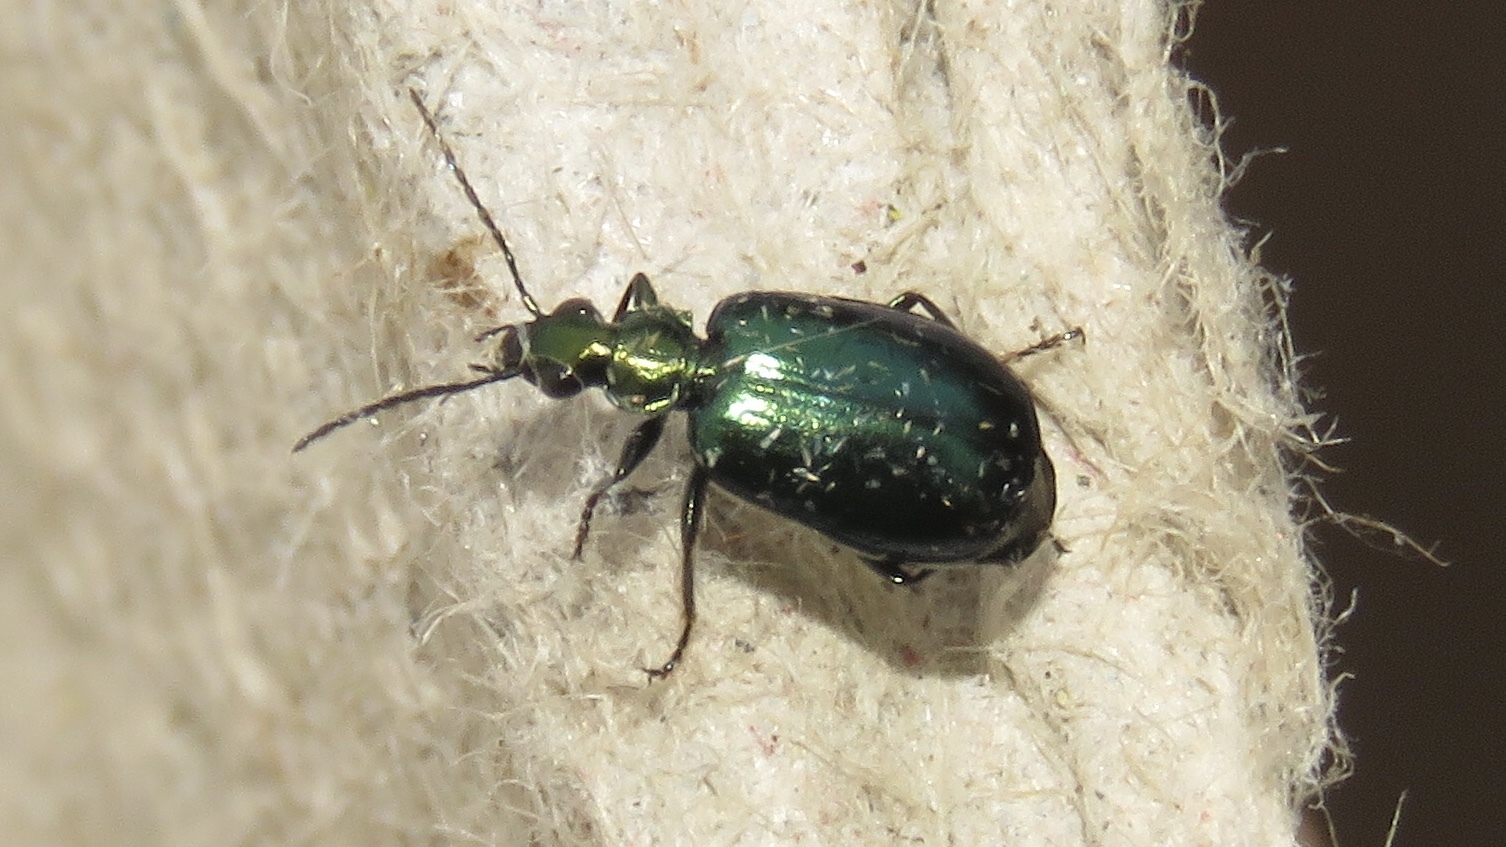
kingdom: Animalia
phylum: Arthropoda
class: Insecta
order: Coleoptera
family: Carabidae
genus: Lebia
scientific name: Lebia viridis
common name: Flower lebia beetle
